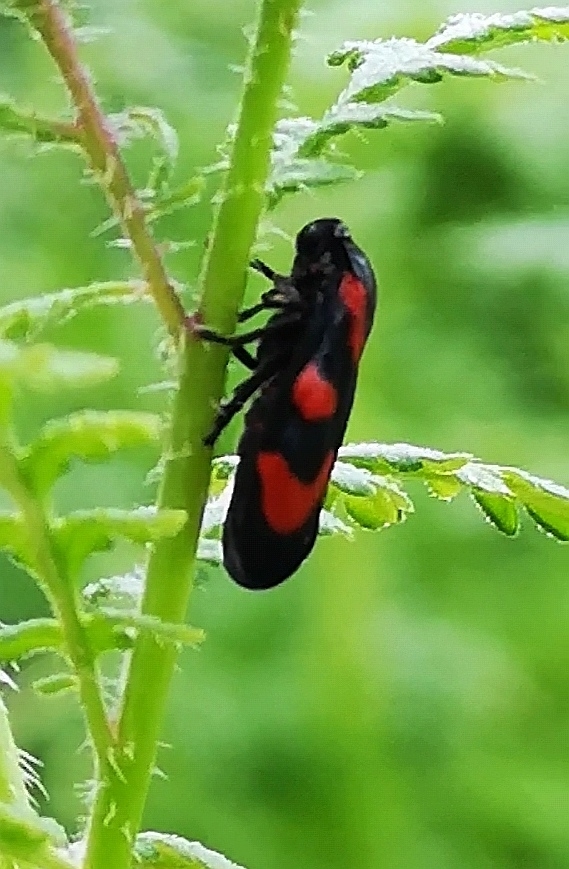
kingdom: Animalia
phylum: Arthropoda
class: Insecta
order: Hemiptera
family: Cercopidae
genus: Cercopis
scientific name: Cercopis vulnerata
